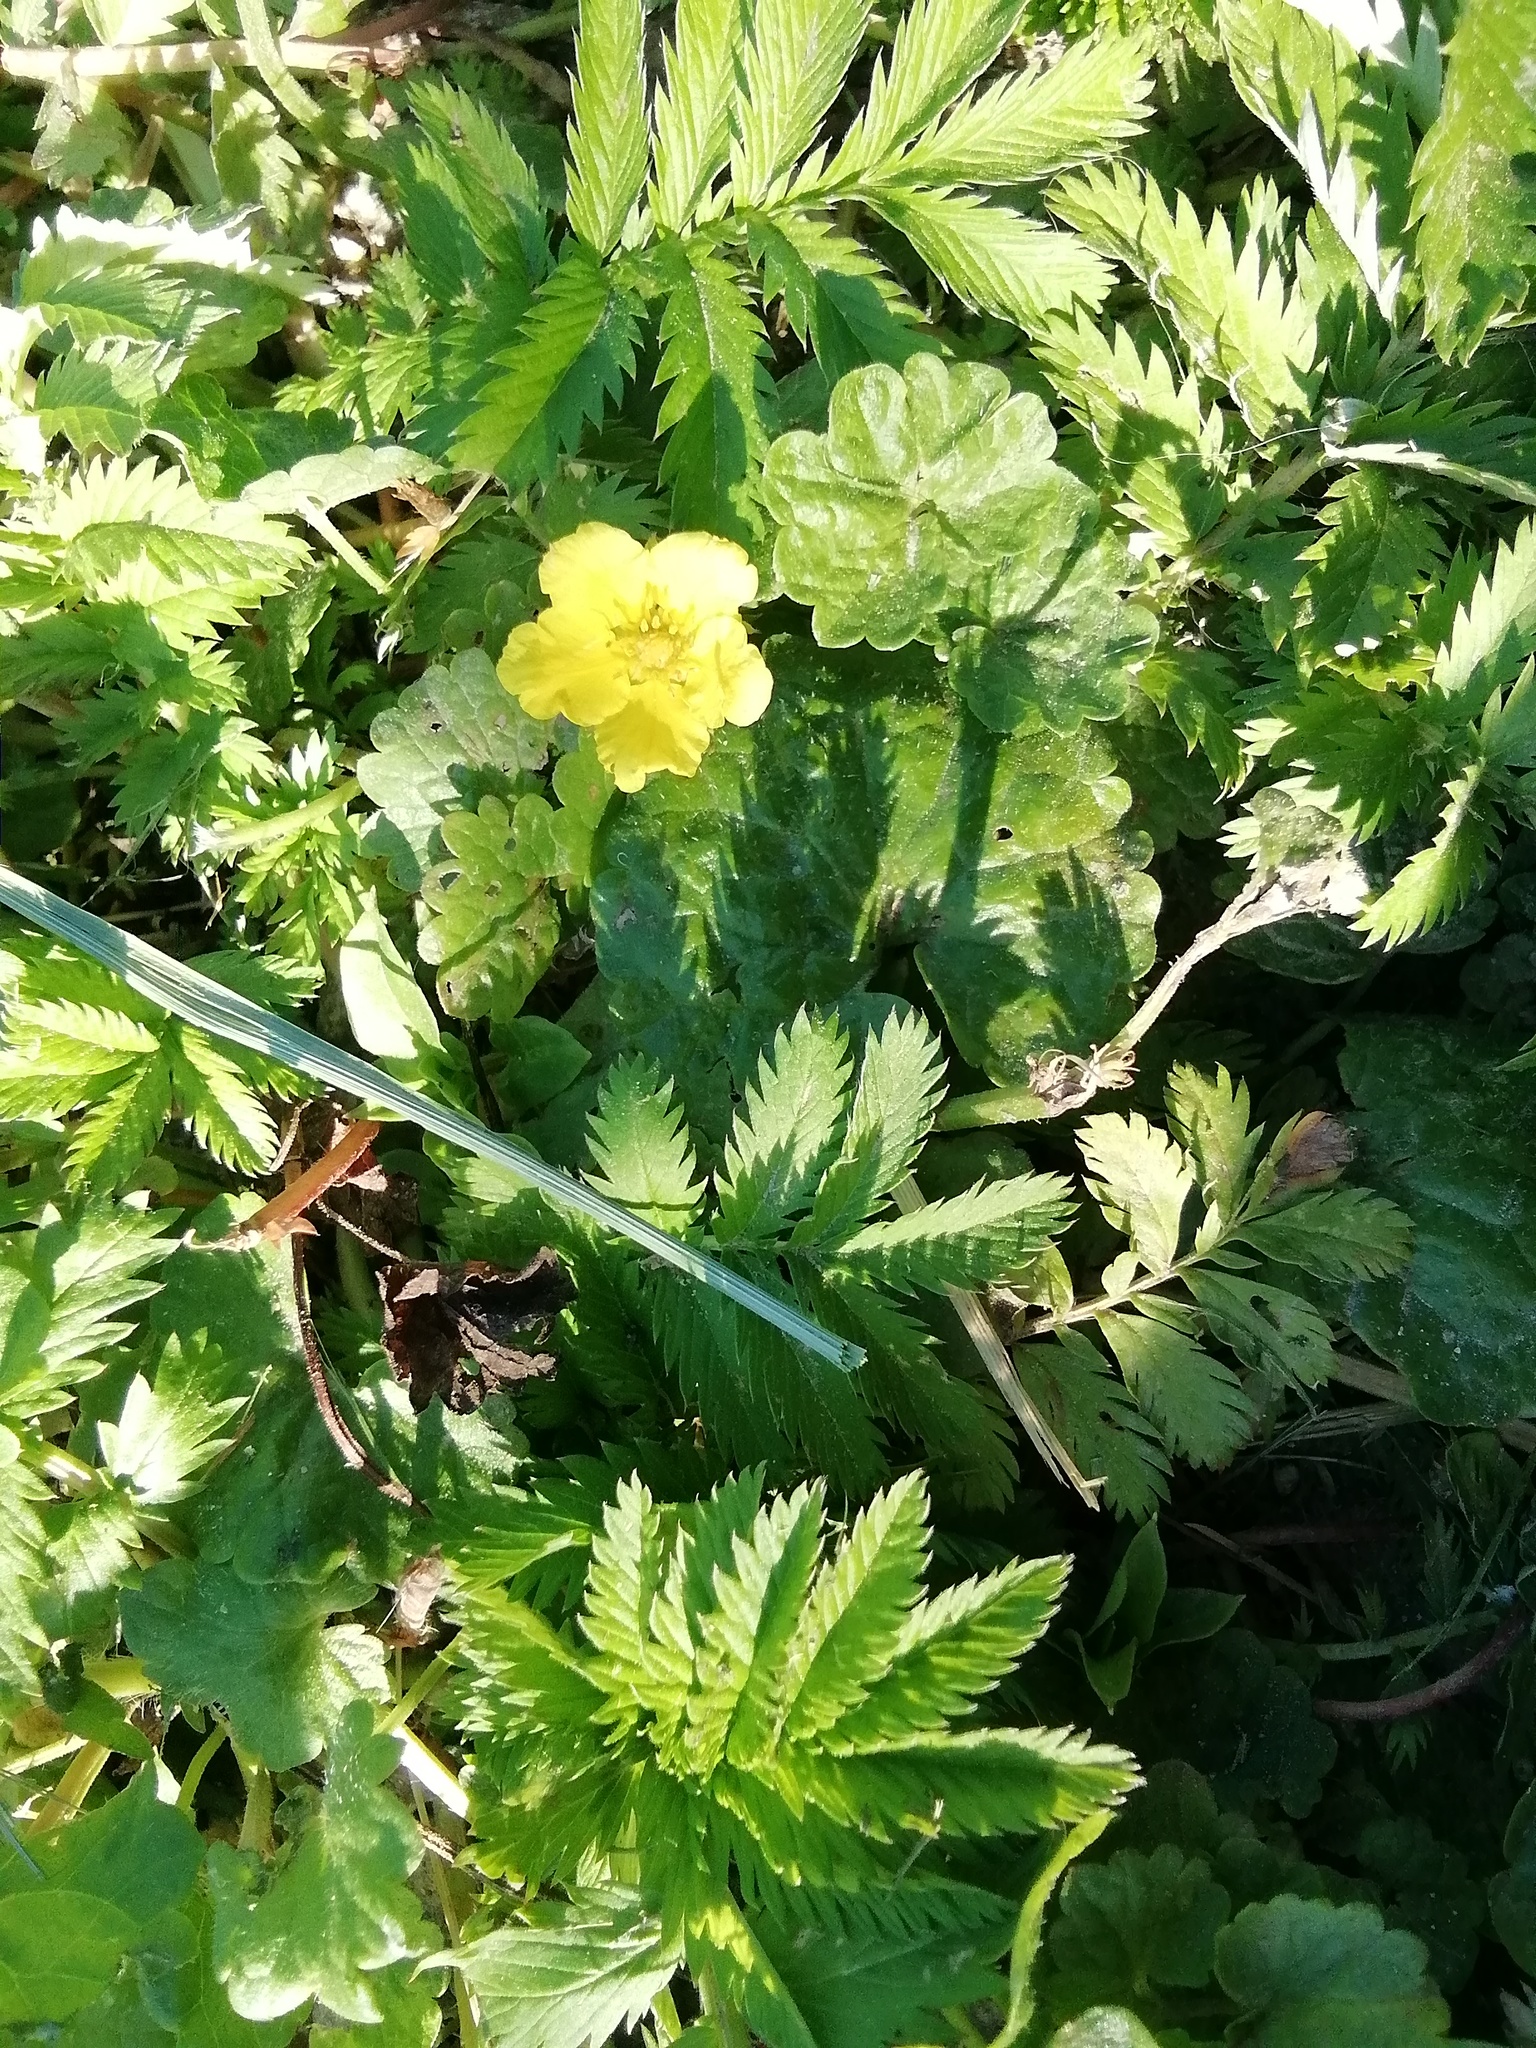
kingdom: Plantae
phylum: Tracheophyta
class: Magnoliopsida
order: Rosales
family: Rosaceae
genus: Argentina
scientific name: Argentina anserina
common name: Common silverweed
